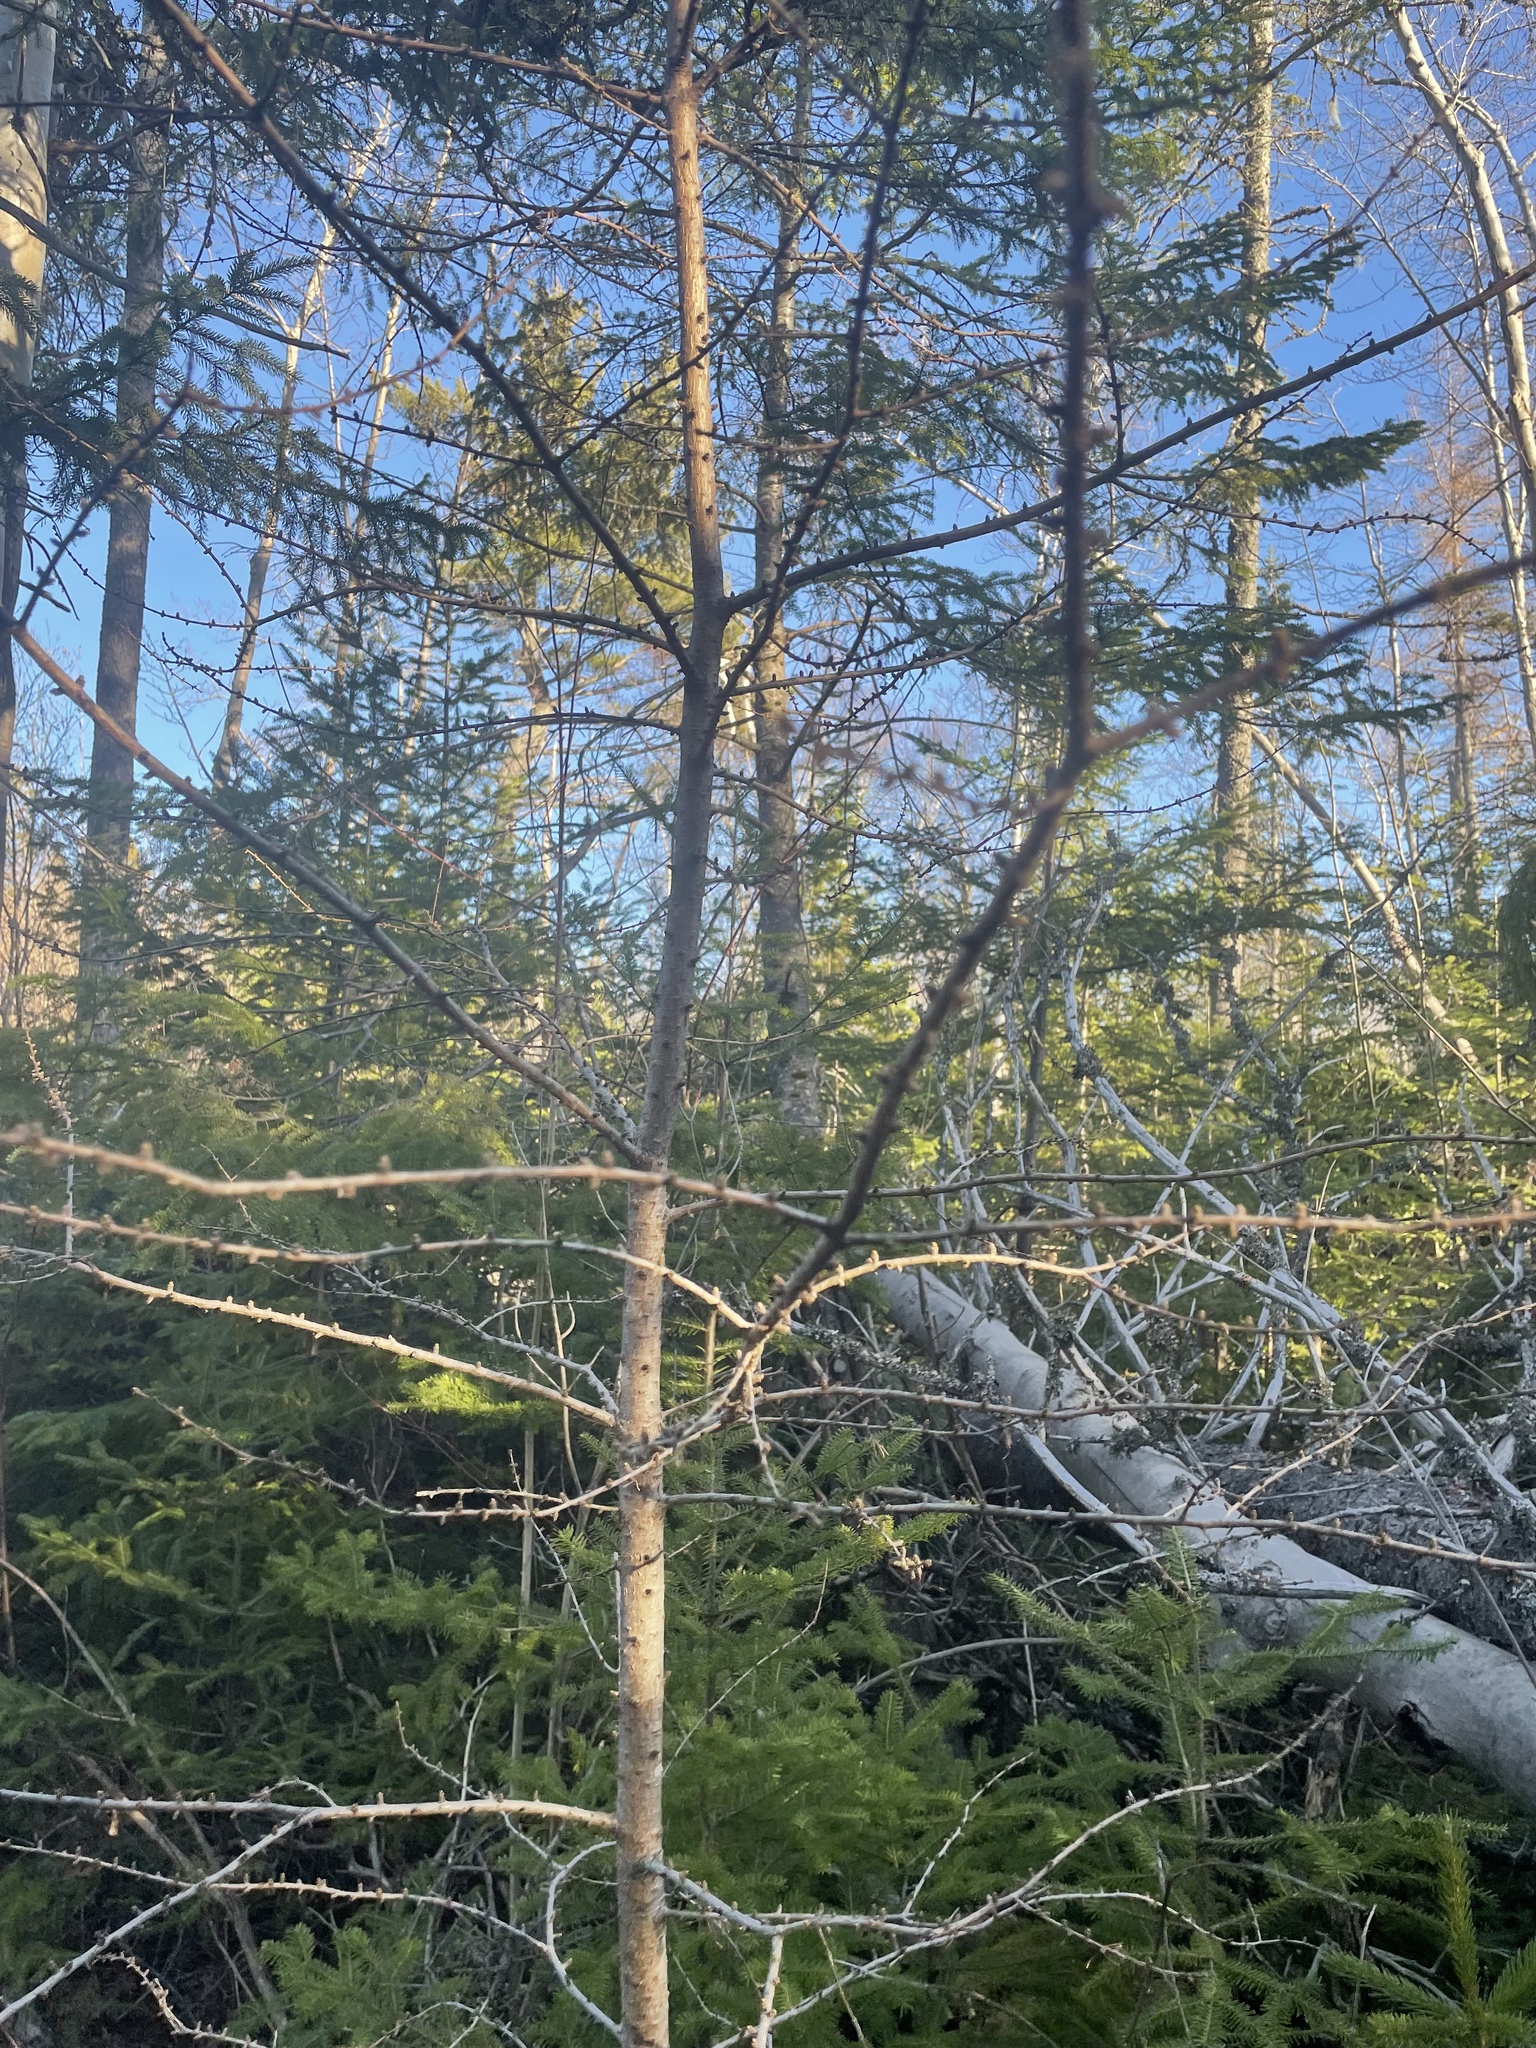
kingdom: Plantae
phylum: Tracheophyta
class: Pinopsida
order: Pinales
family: Pinaceae
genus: Larix
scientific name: Larix laricina
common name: American larch
